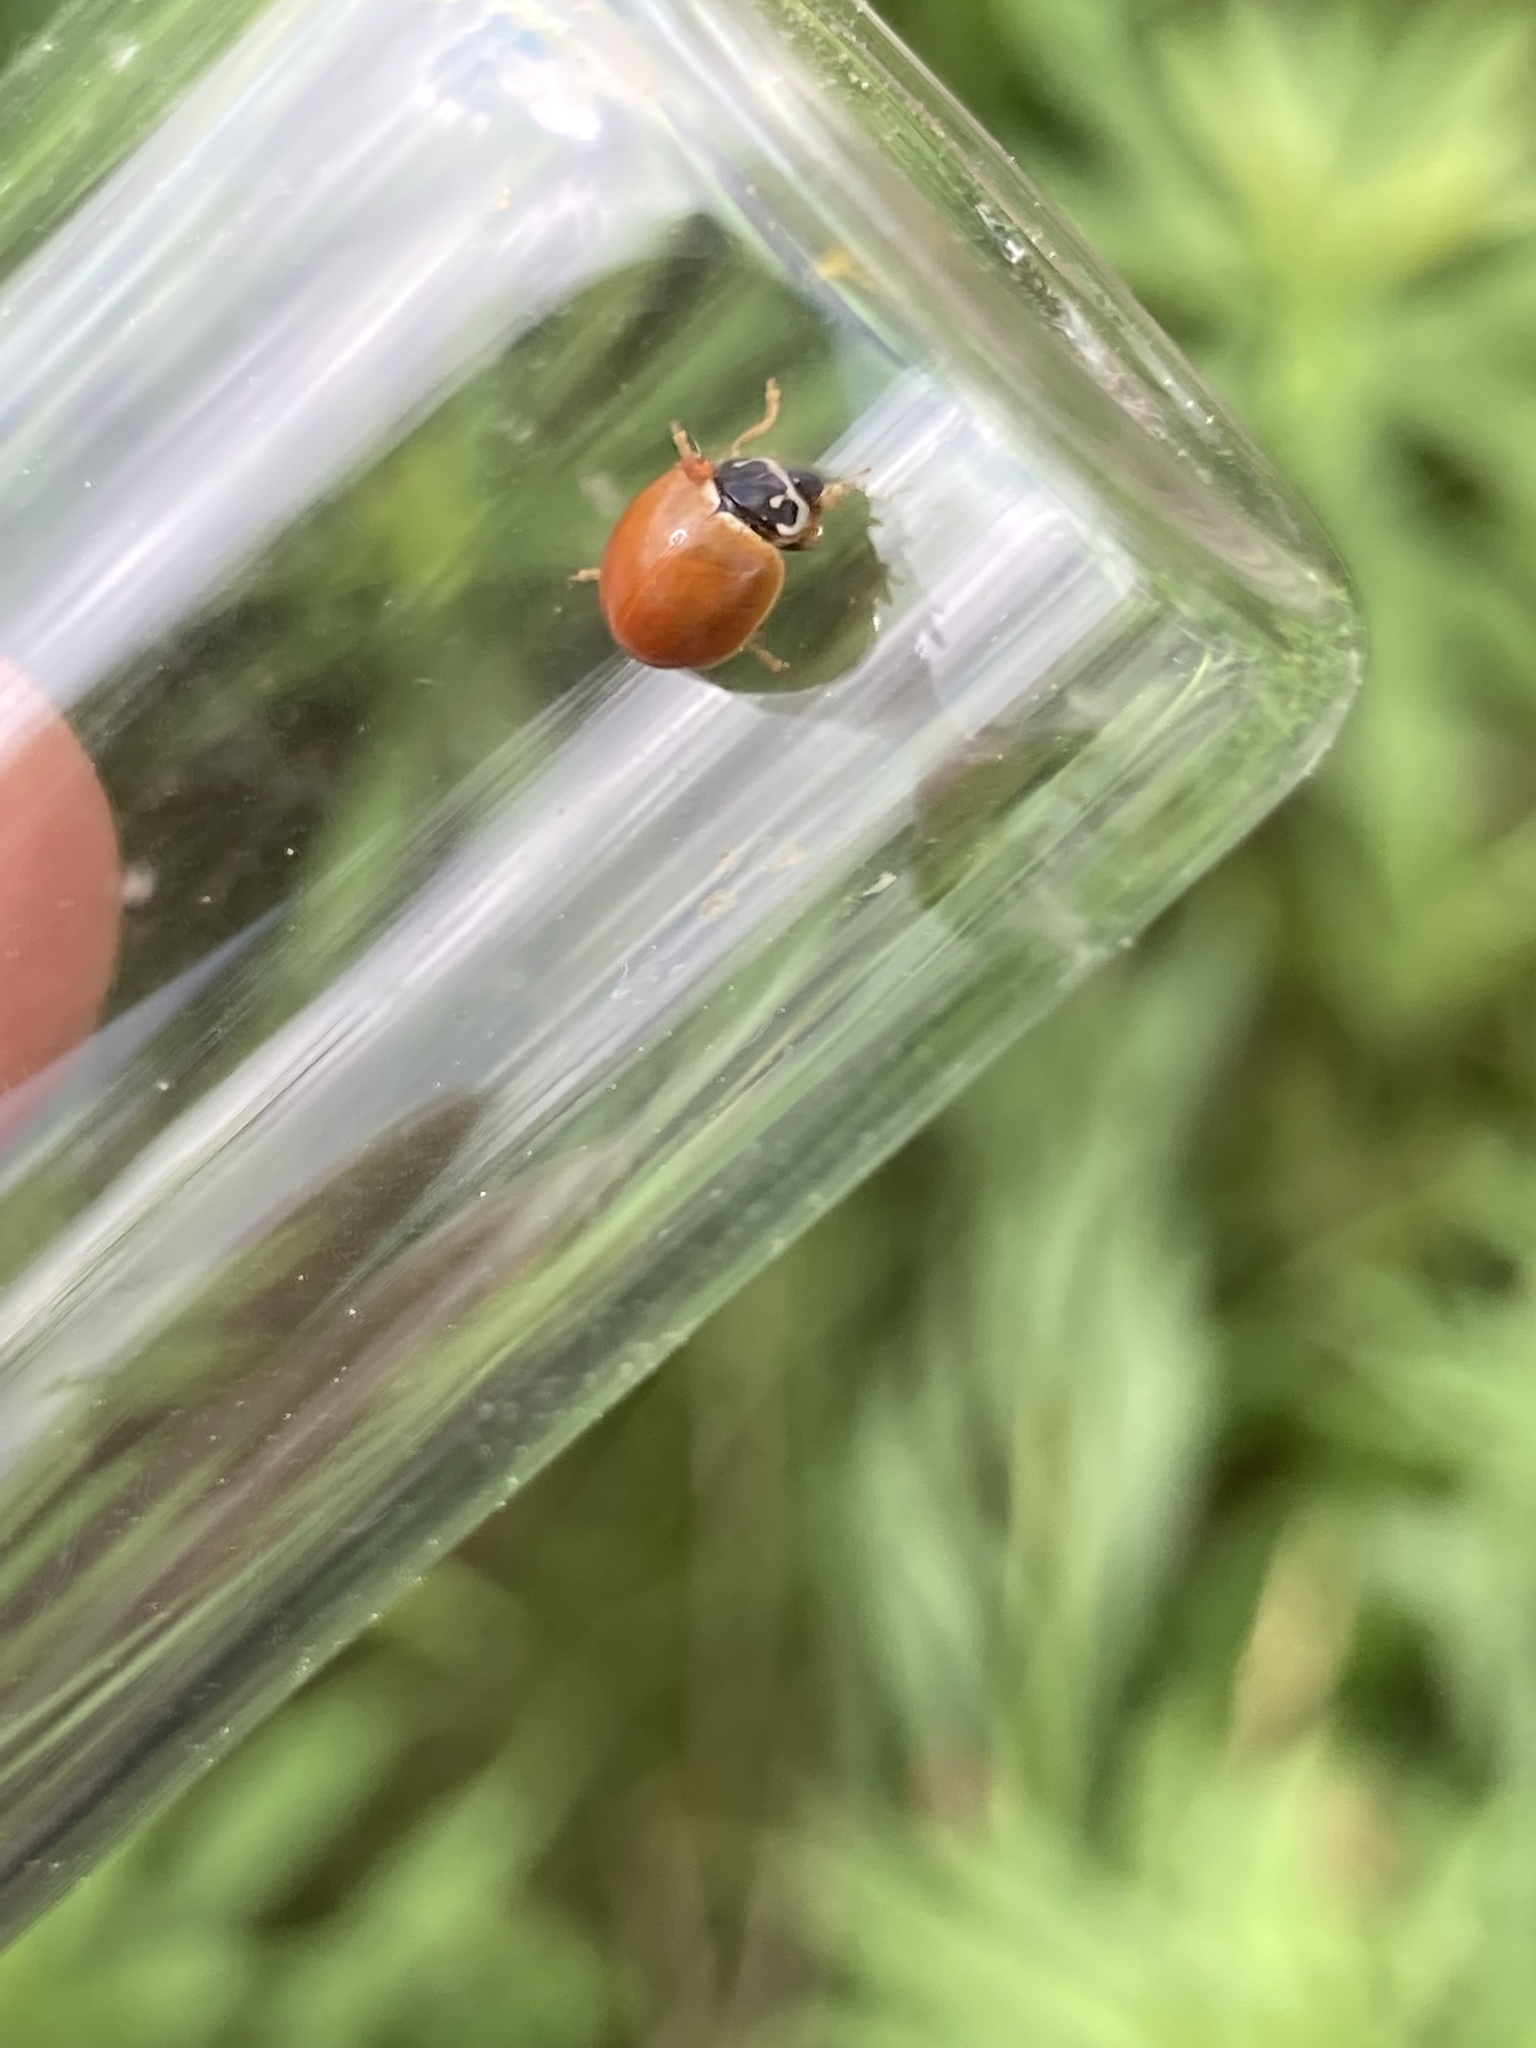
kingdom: Animalia
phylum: Arthropoda
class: Insecta
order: Coleoptera
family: Coccinellidae
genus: Cycloneda
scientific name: Cycloneda munda
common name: Polished lady beetle
